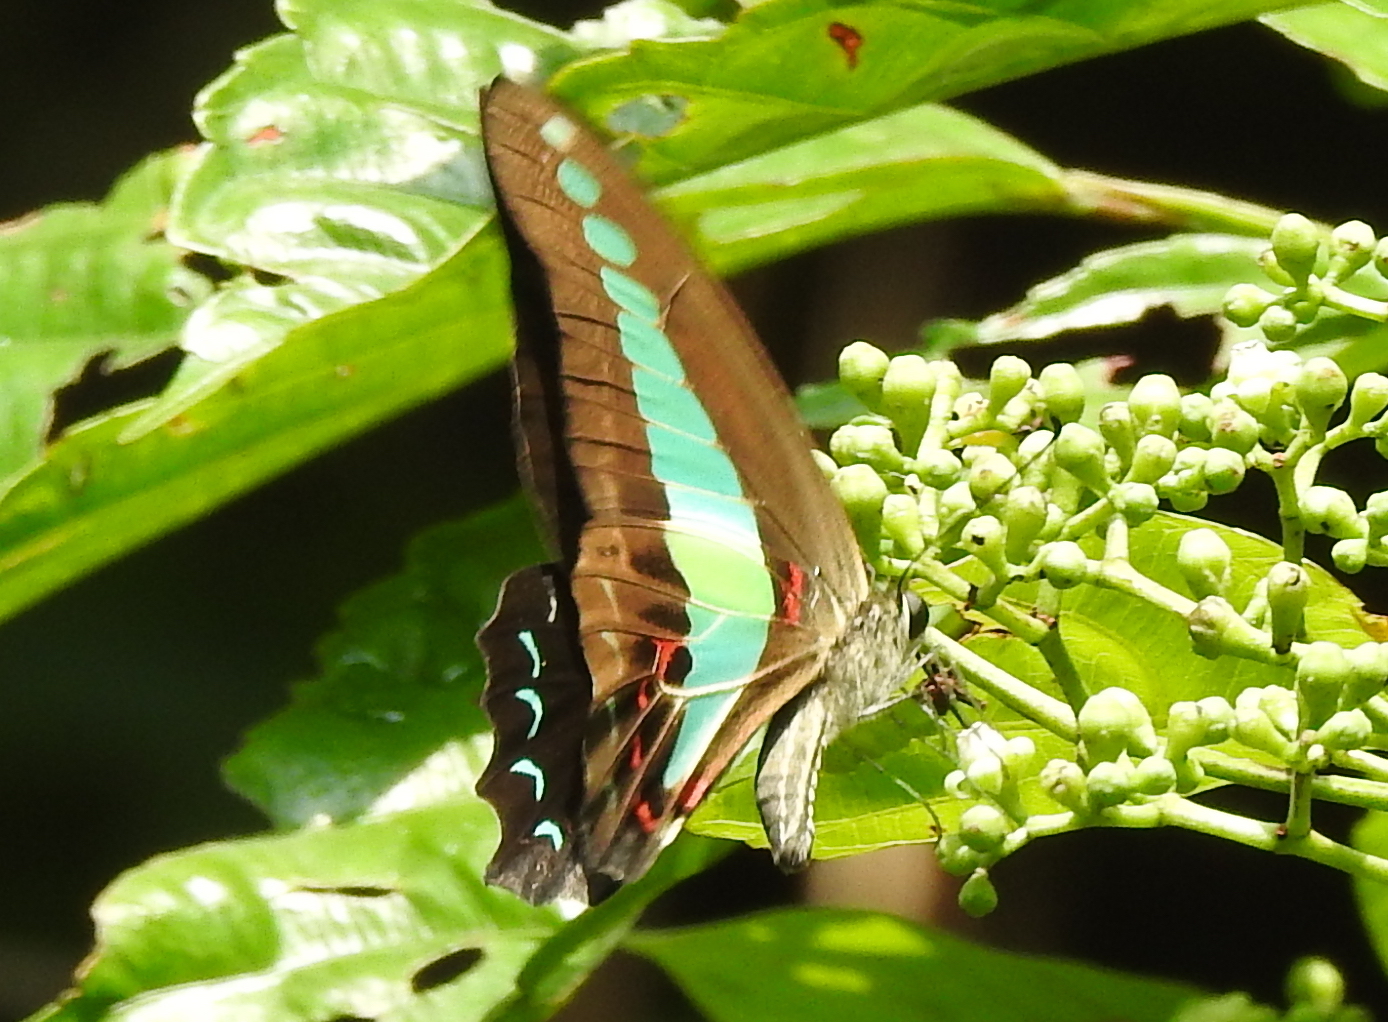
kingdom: Fungi
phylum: Ascomycota
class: Sordariomycetes
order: Microascales
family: Microascaceae
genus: Graphium
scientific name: Graphium sarpedon
